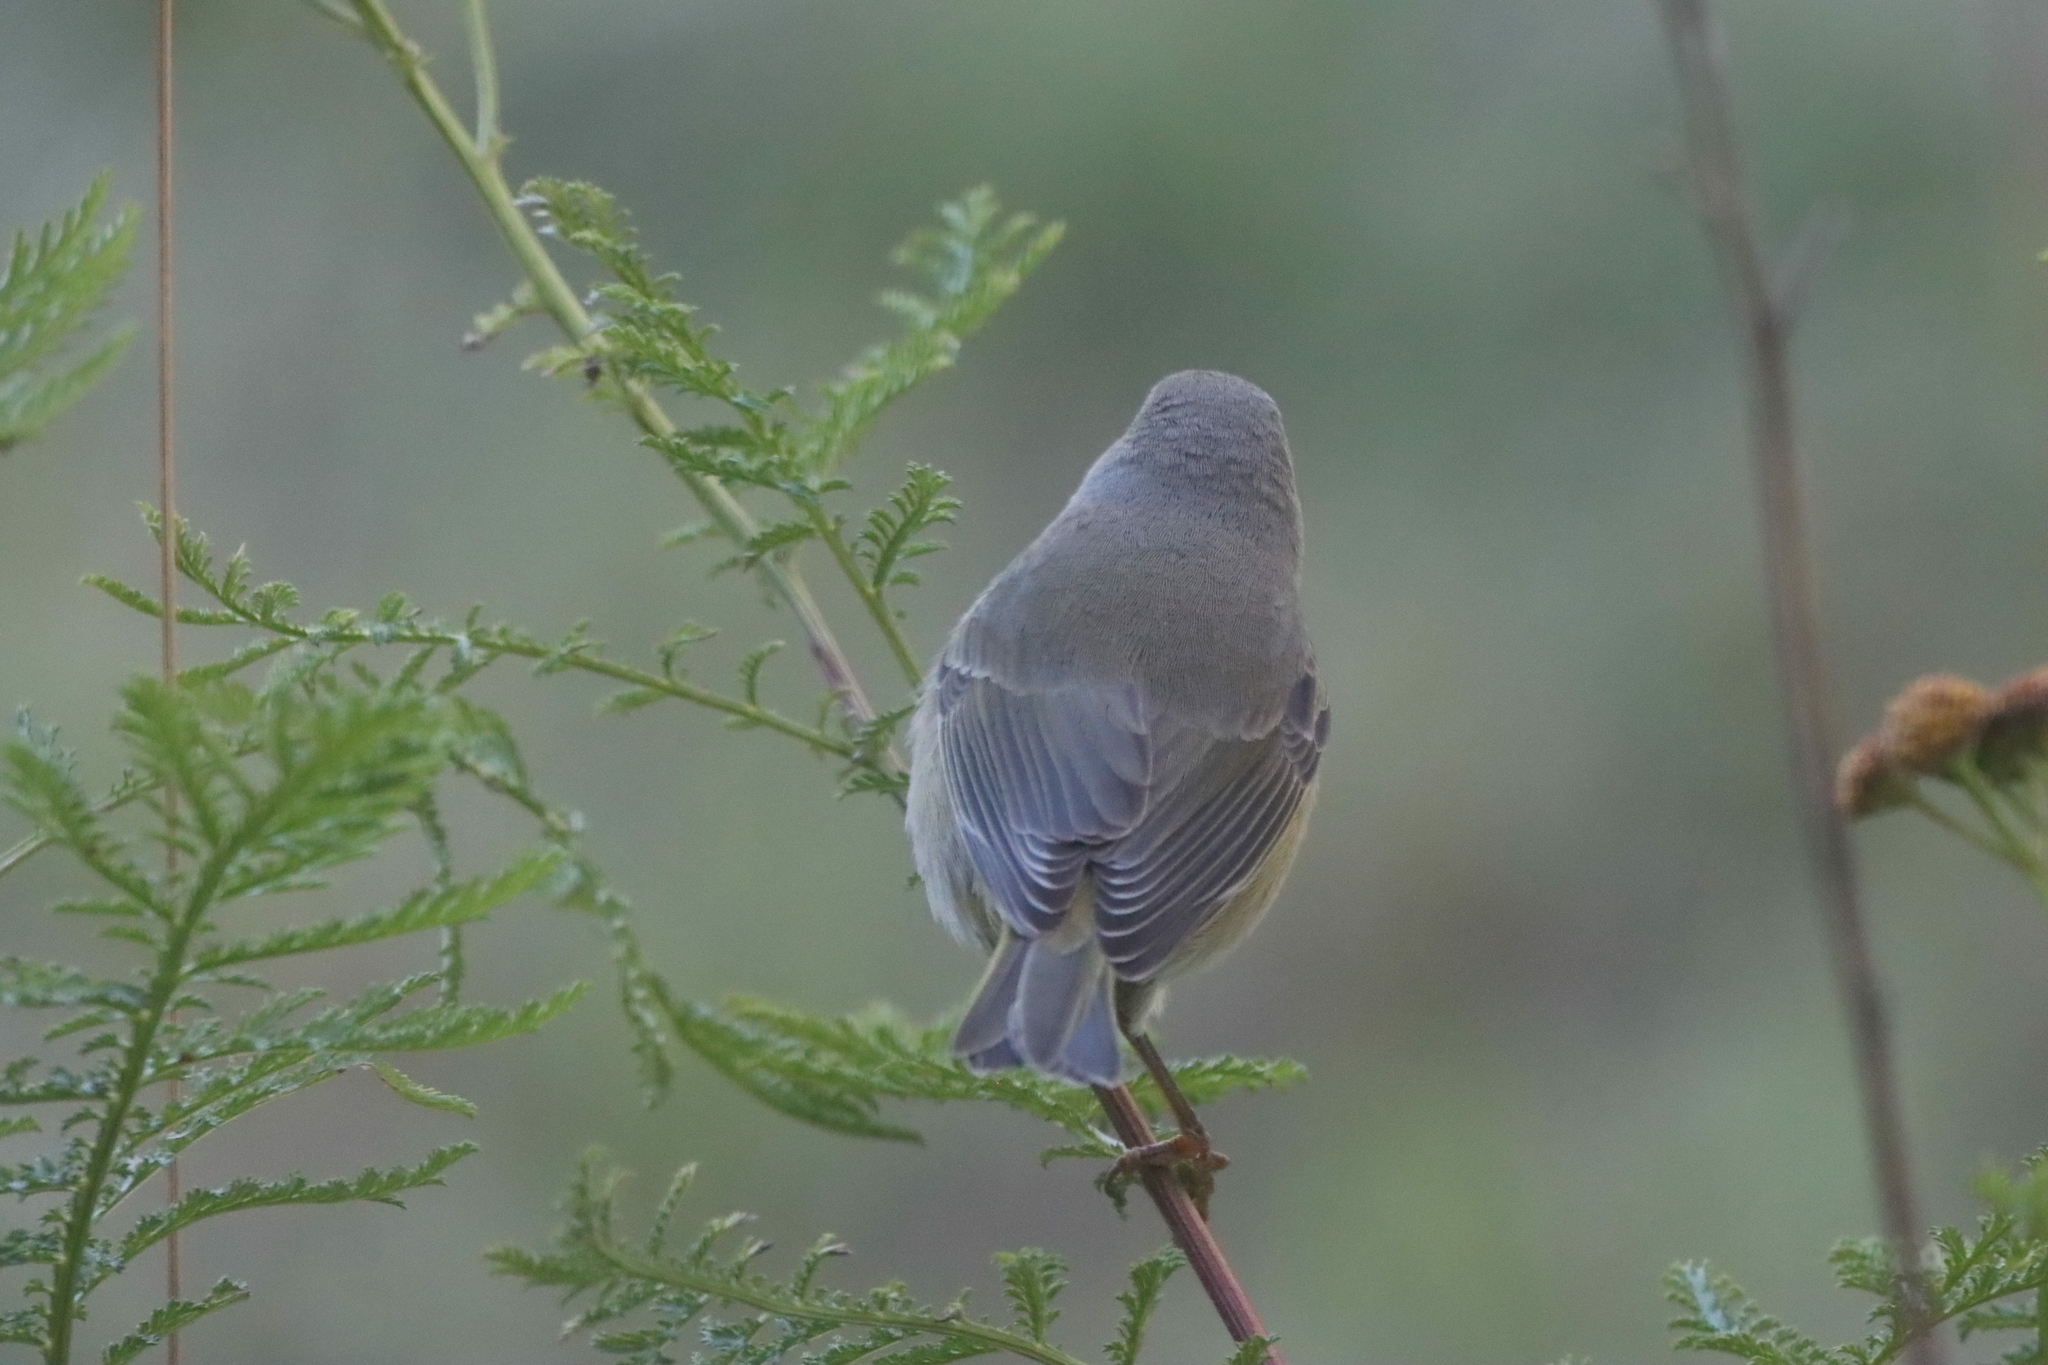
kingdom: Animalia
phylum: Chordata
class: Aves
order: Passeriformes
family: Parulidae
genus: Leiothlypis
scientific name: Leiothlypis celata
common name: Orange-crowned warbler
